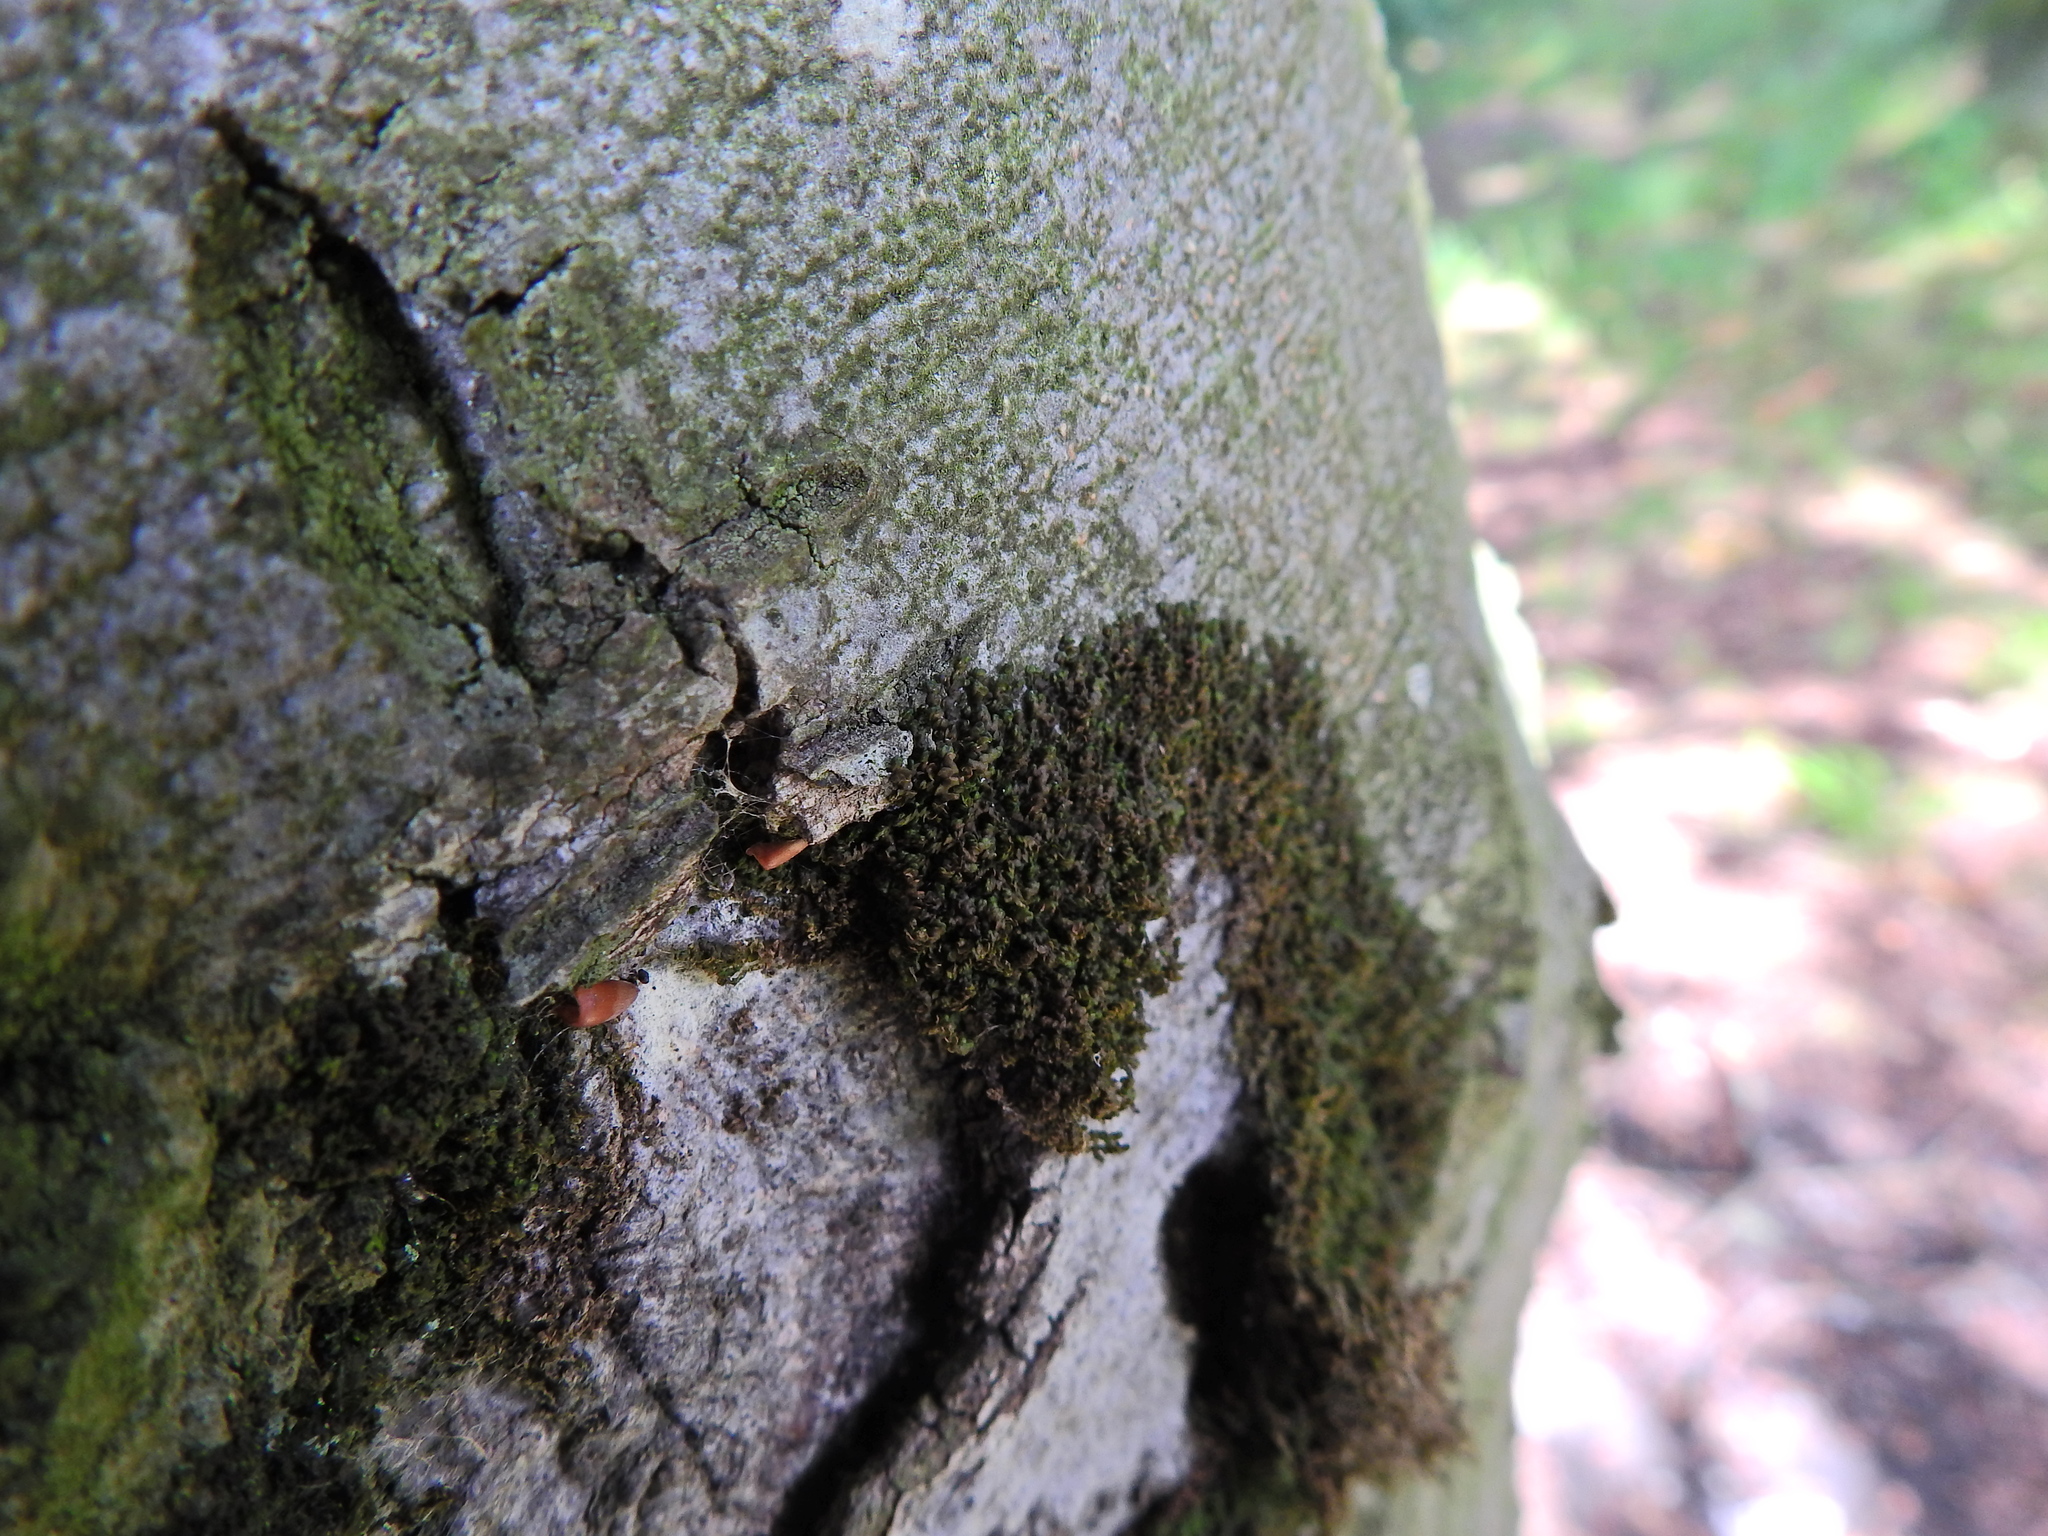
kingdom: Plantae
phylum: Marchantiophyta
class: Jungermanniopsida
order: Porellales
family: Frullaniaceae
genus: Frullania
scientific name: Frullania dilatata
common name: Dilated scalewort
